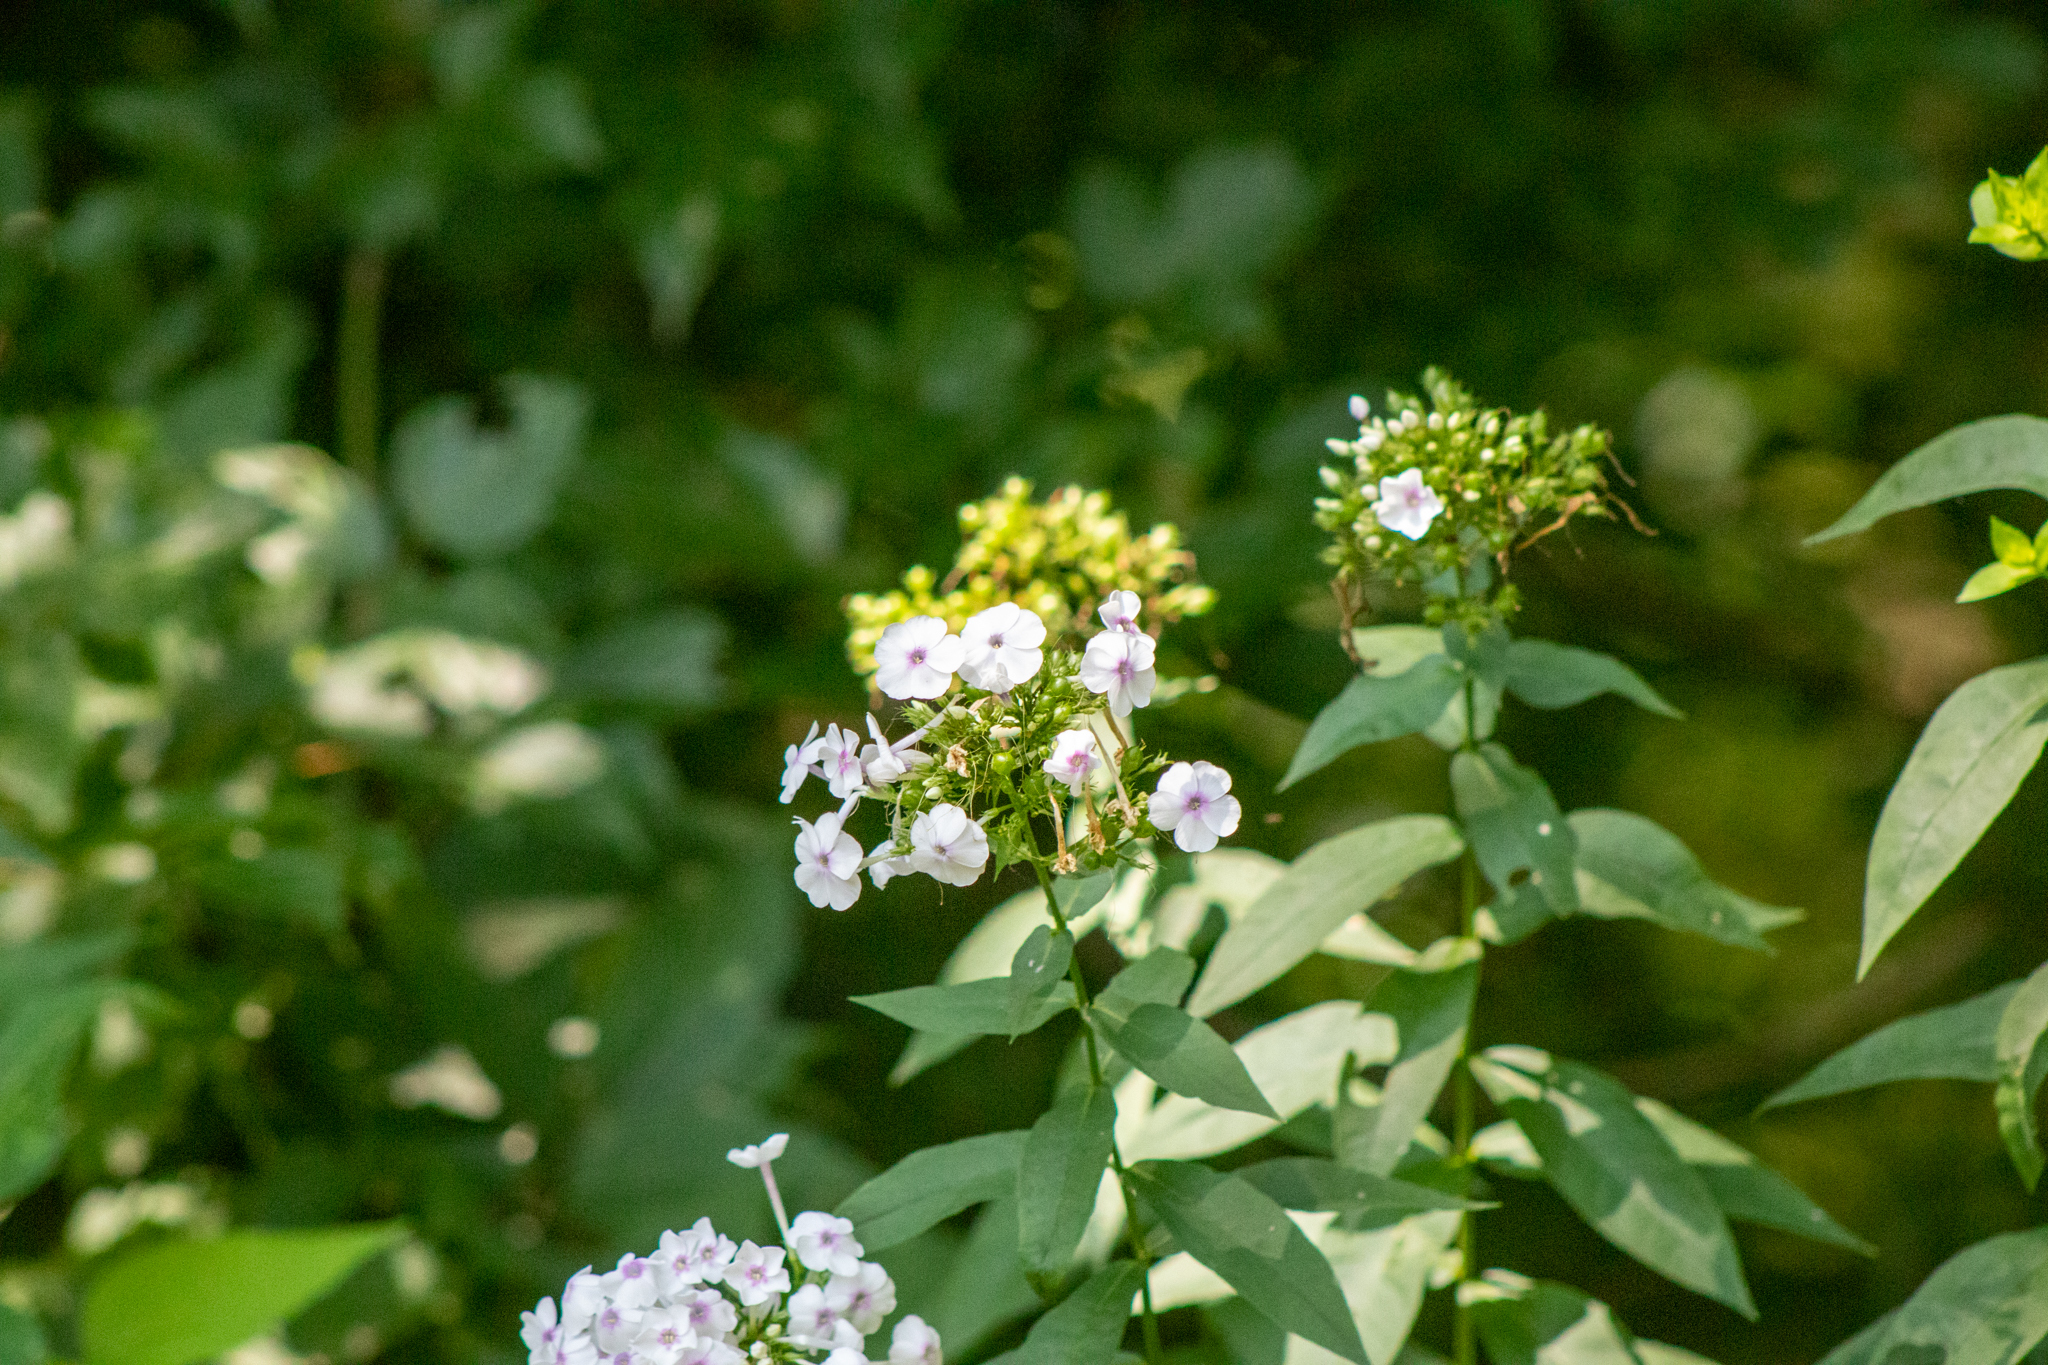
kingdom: Plantae
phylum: Tracheophyta
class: Magnoliopsida
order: Ericales
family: Polemoniaceae
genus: Phlox
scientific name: Phlox paniculata
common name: Fall phlox
